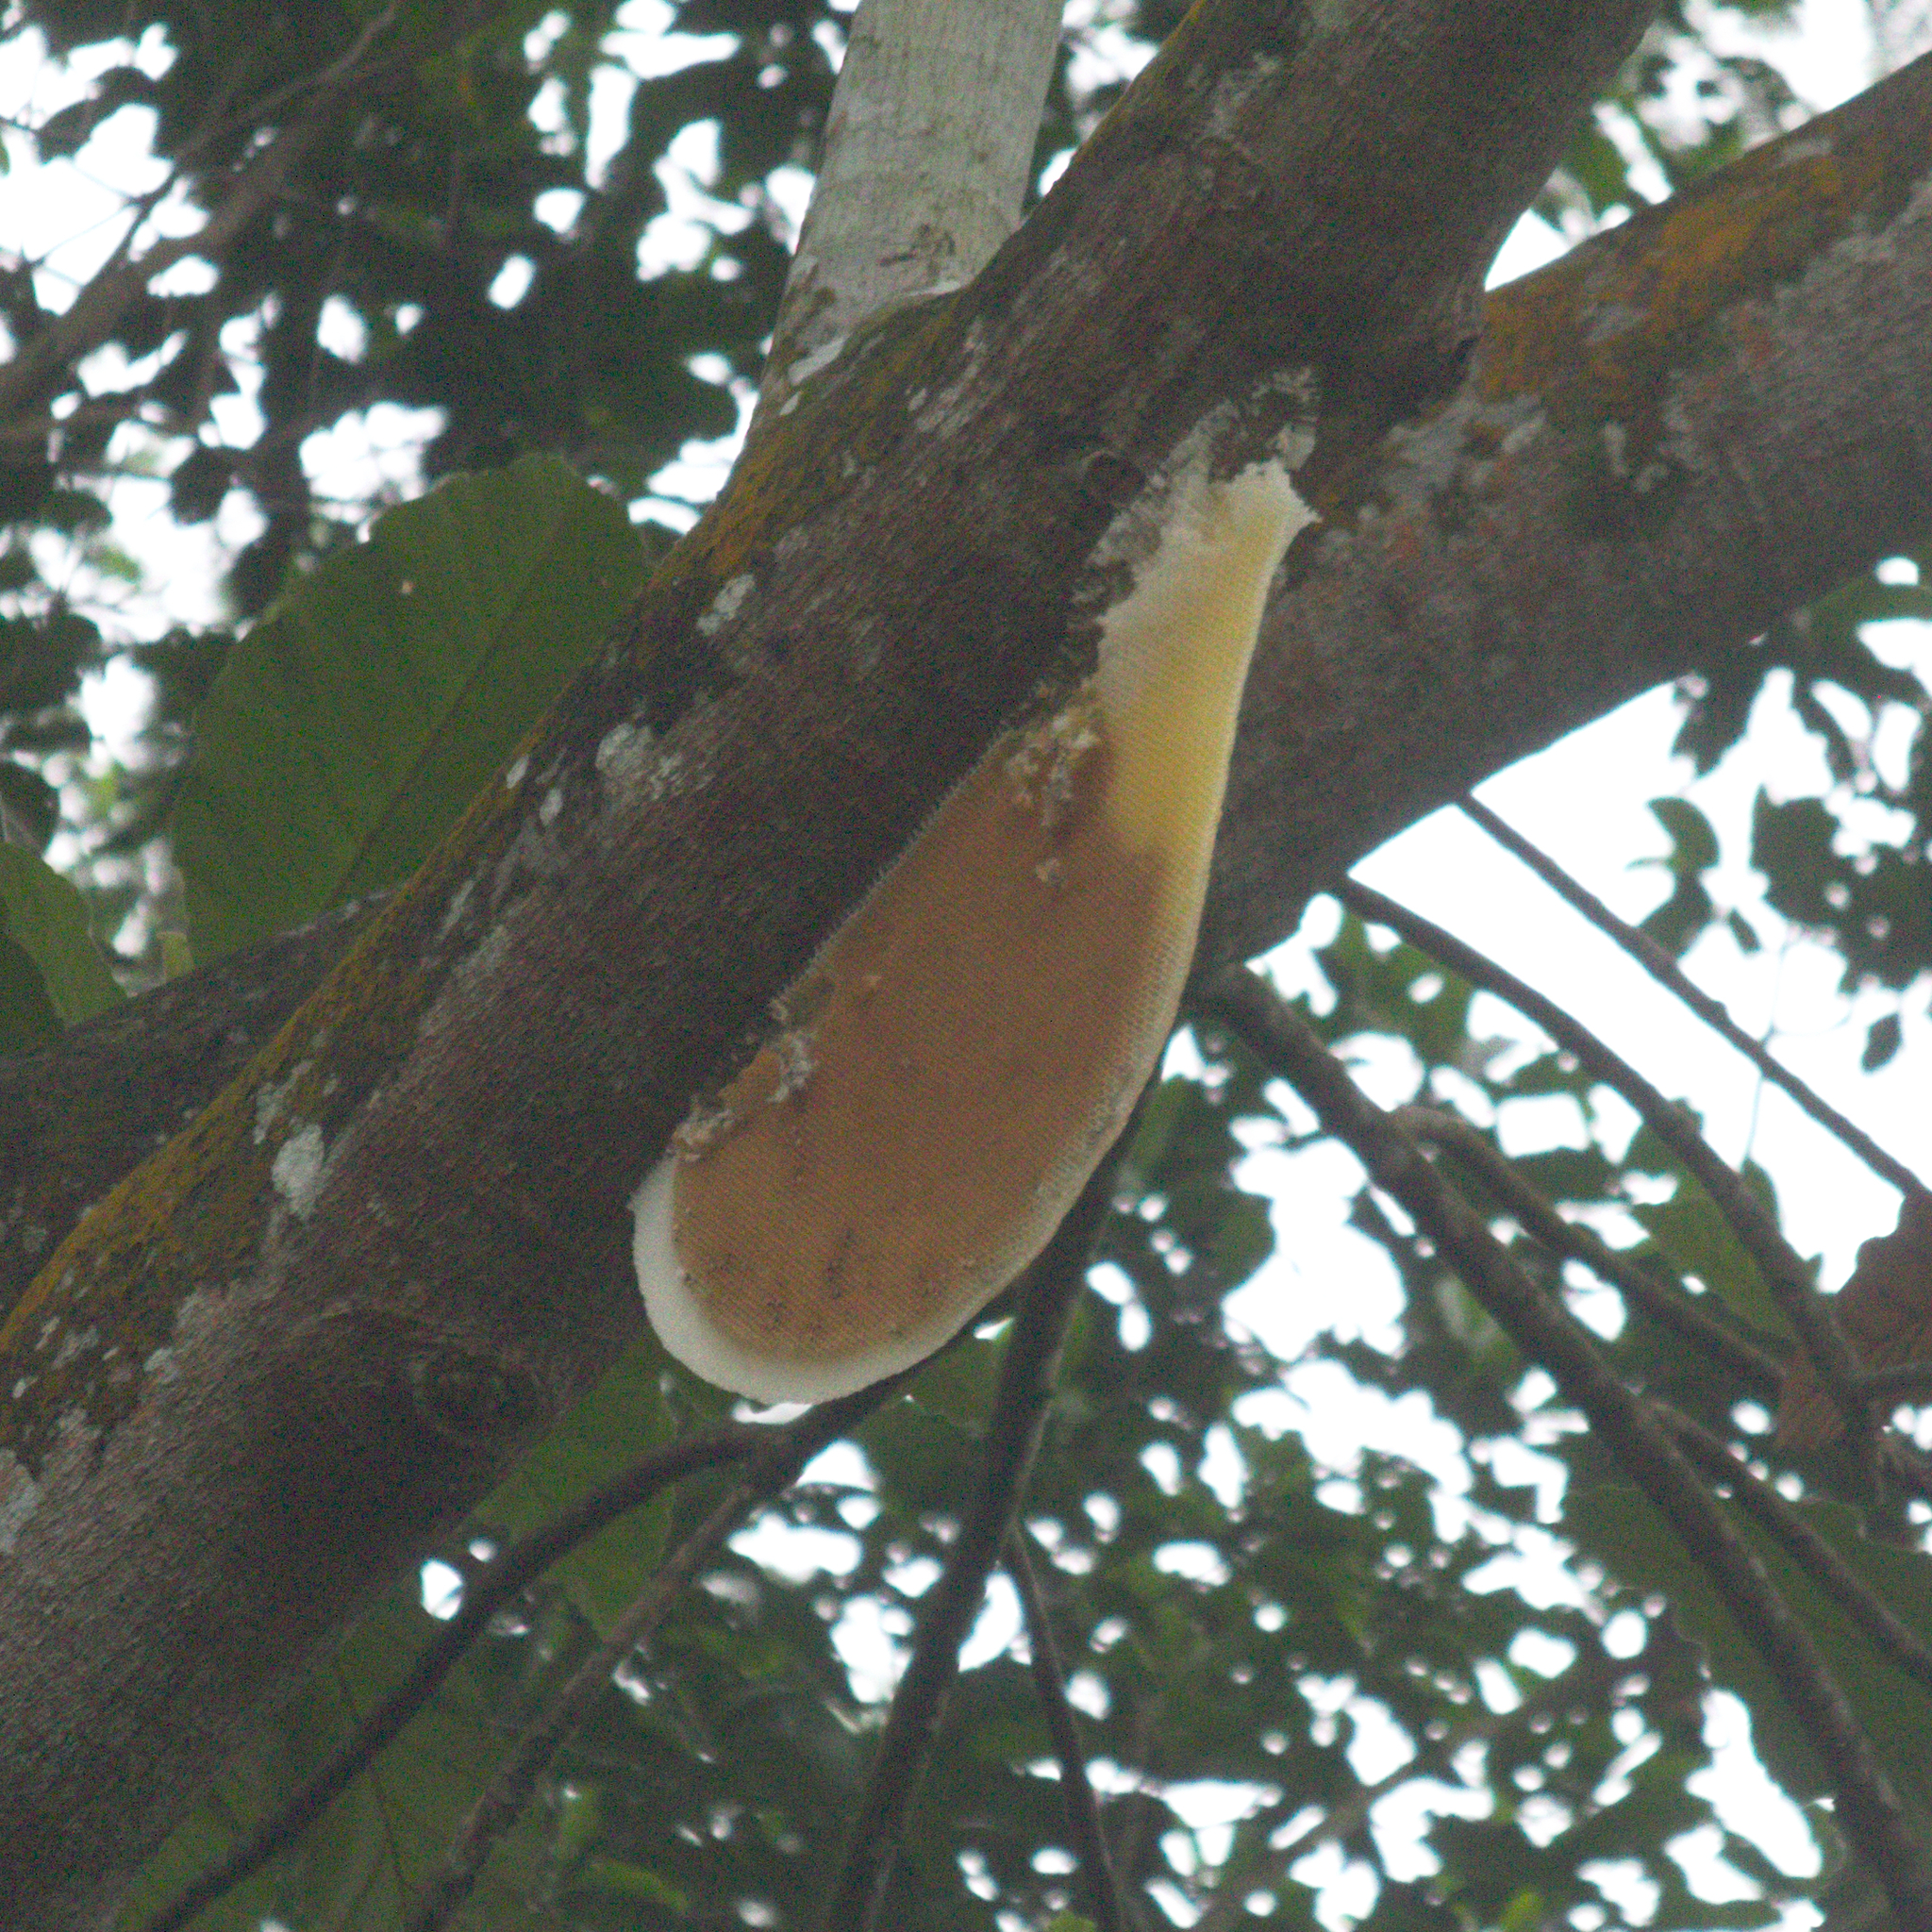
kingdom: Animalia
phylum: Arthropoda
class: Insecta
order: Hymenoptera
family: Apidae
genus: Apis
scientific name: Apis dorsata
